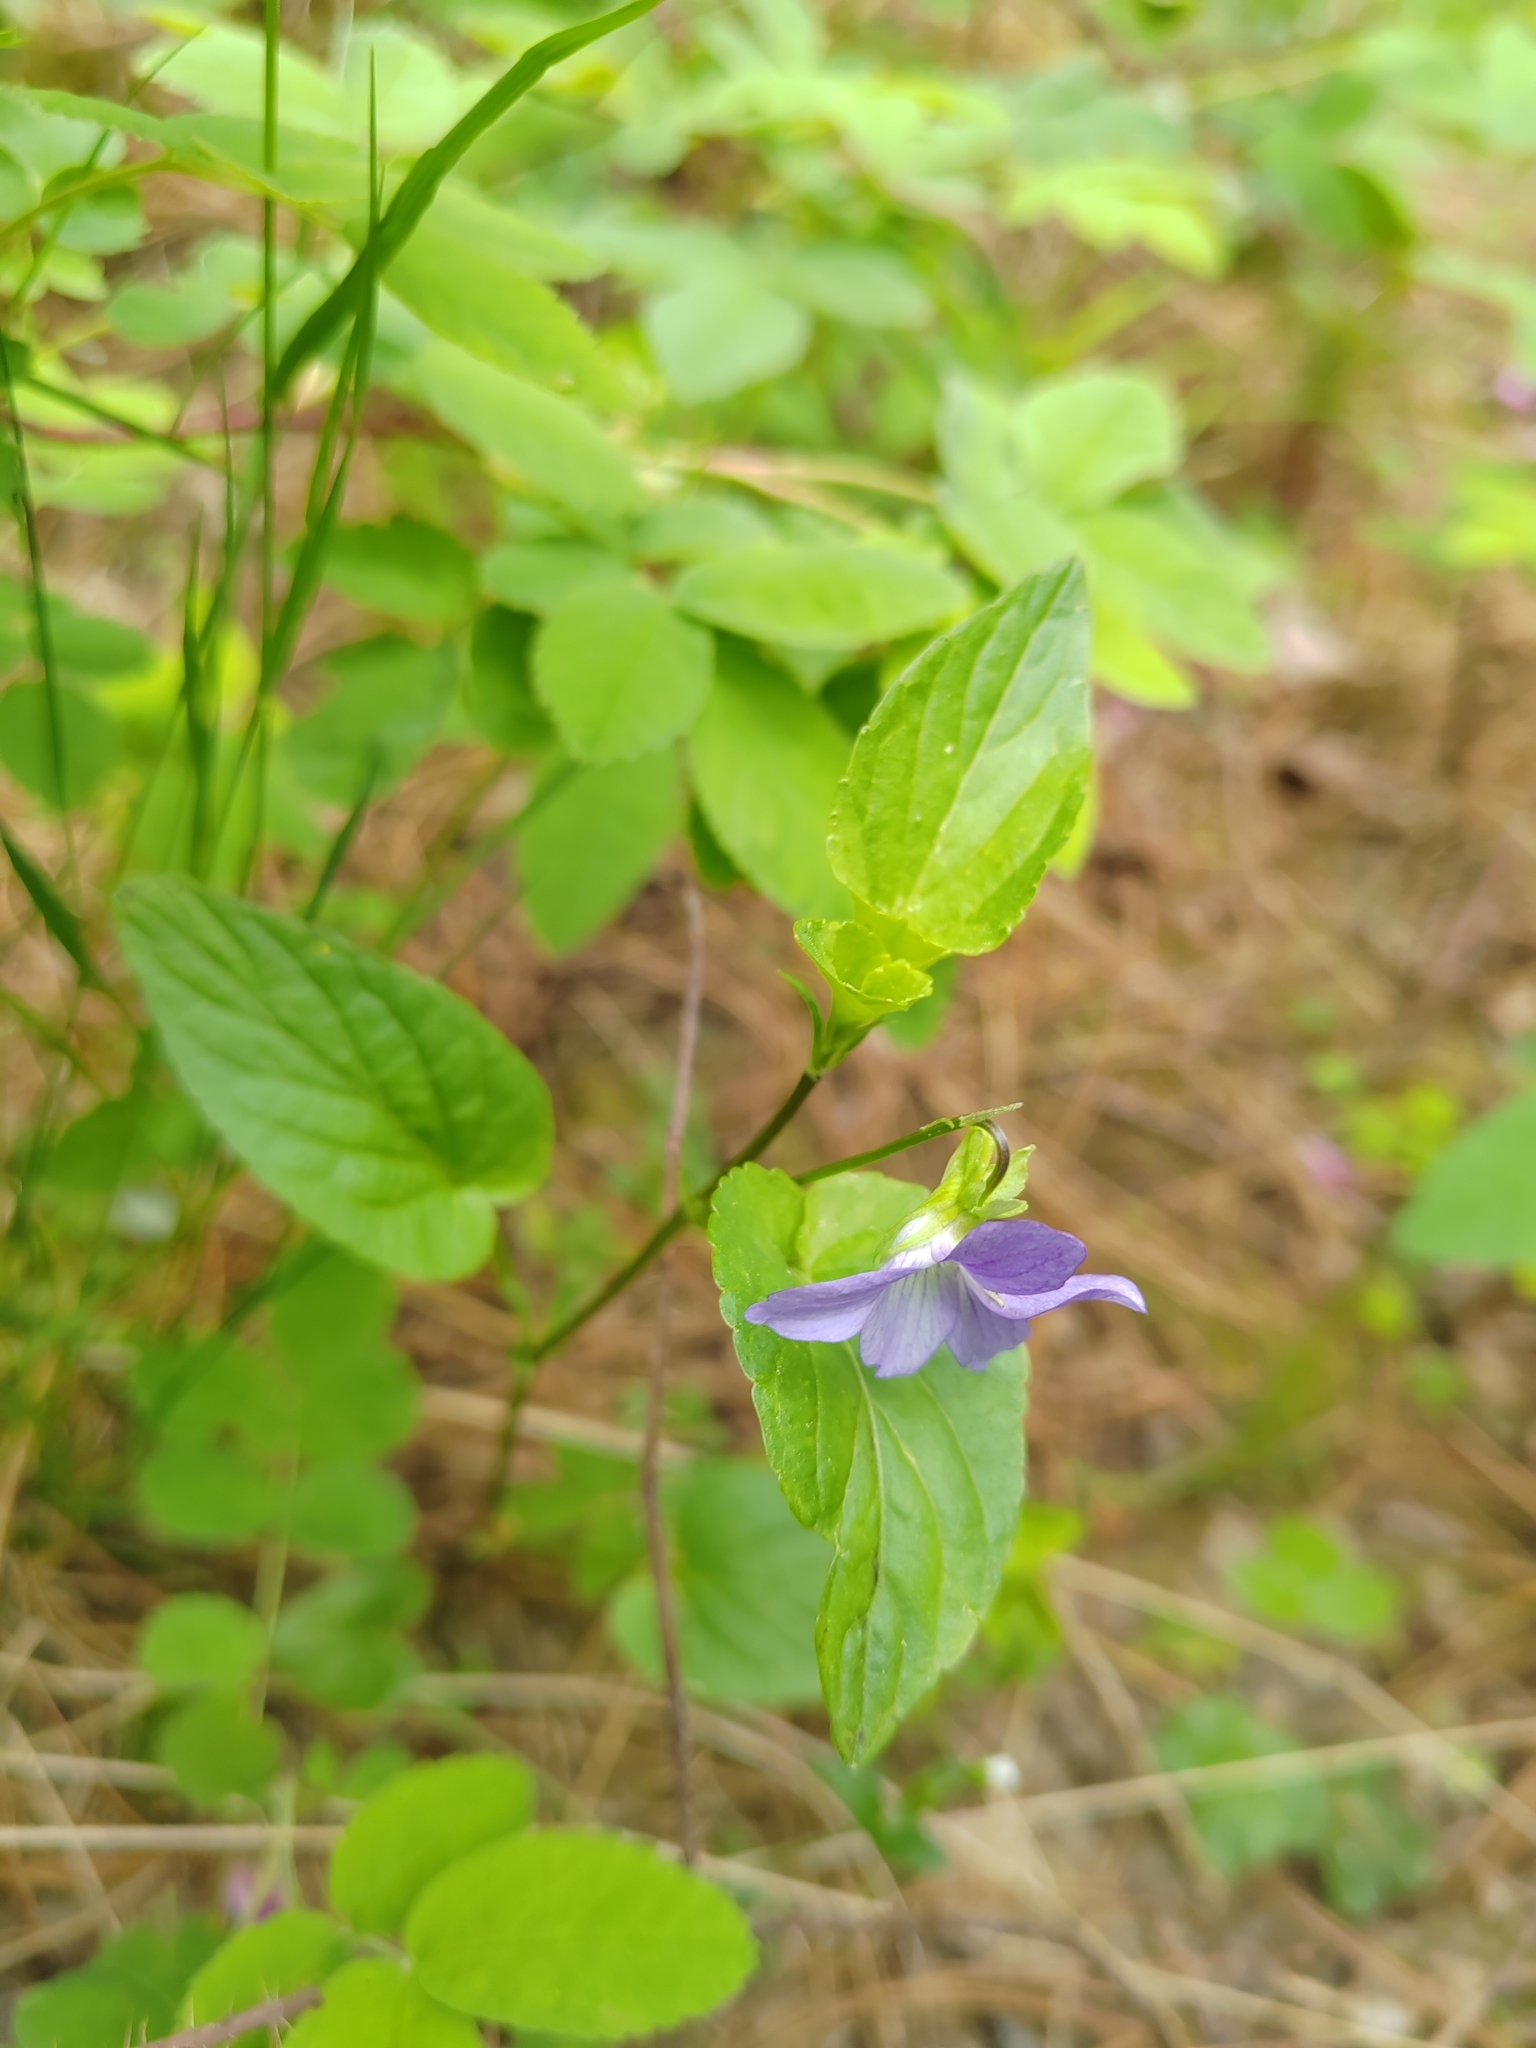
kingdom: Plantae
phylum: Tracheophyta
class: Magnoliopsida
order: Malpighiales
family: Violaceae
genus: Viola
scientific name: Viola
